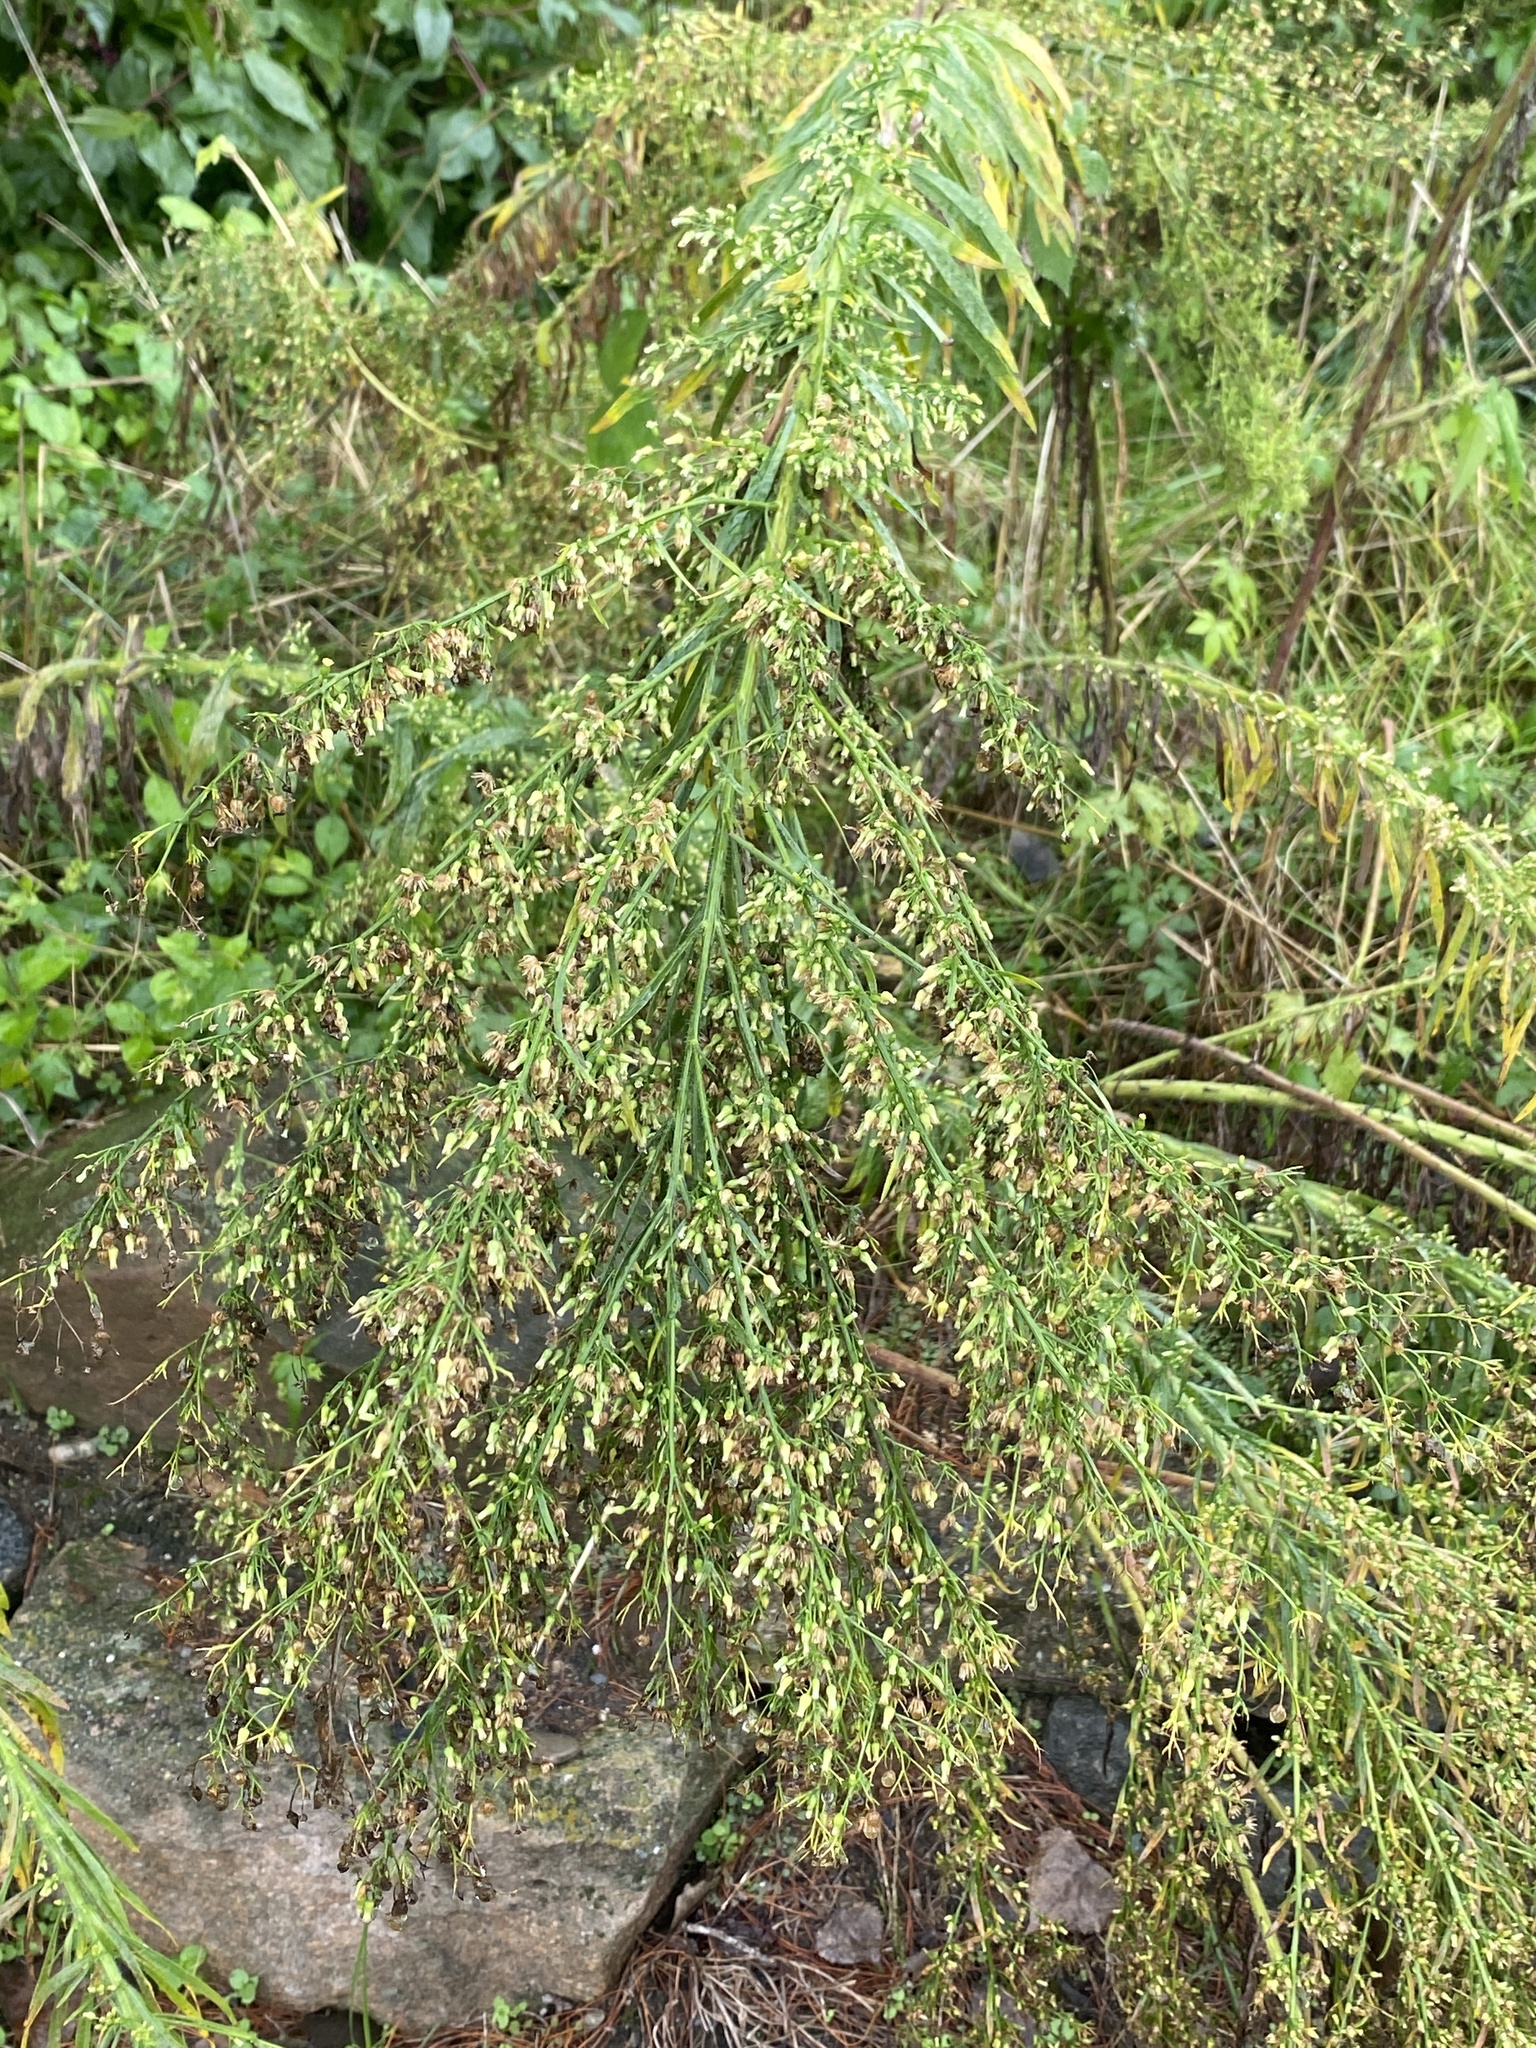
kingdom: Plantae
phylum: Tracheophyta
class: Magnoliopsida
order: Asterales
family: Asteraceae
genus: Erigeron
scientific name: Erigeron canadensis
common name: Canadian fleabane
